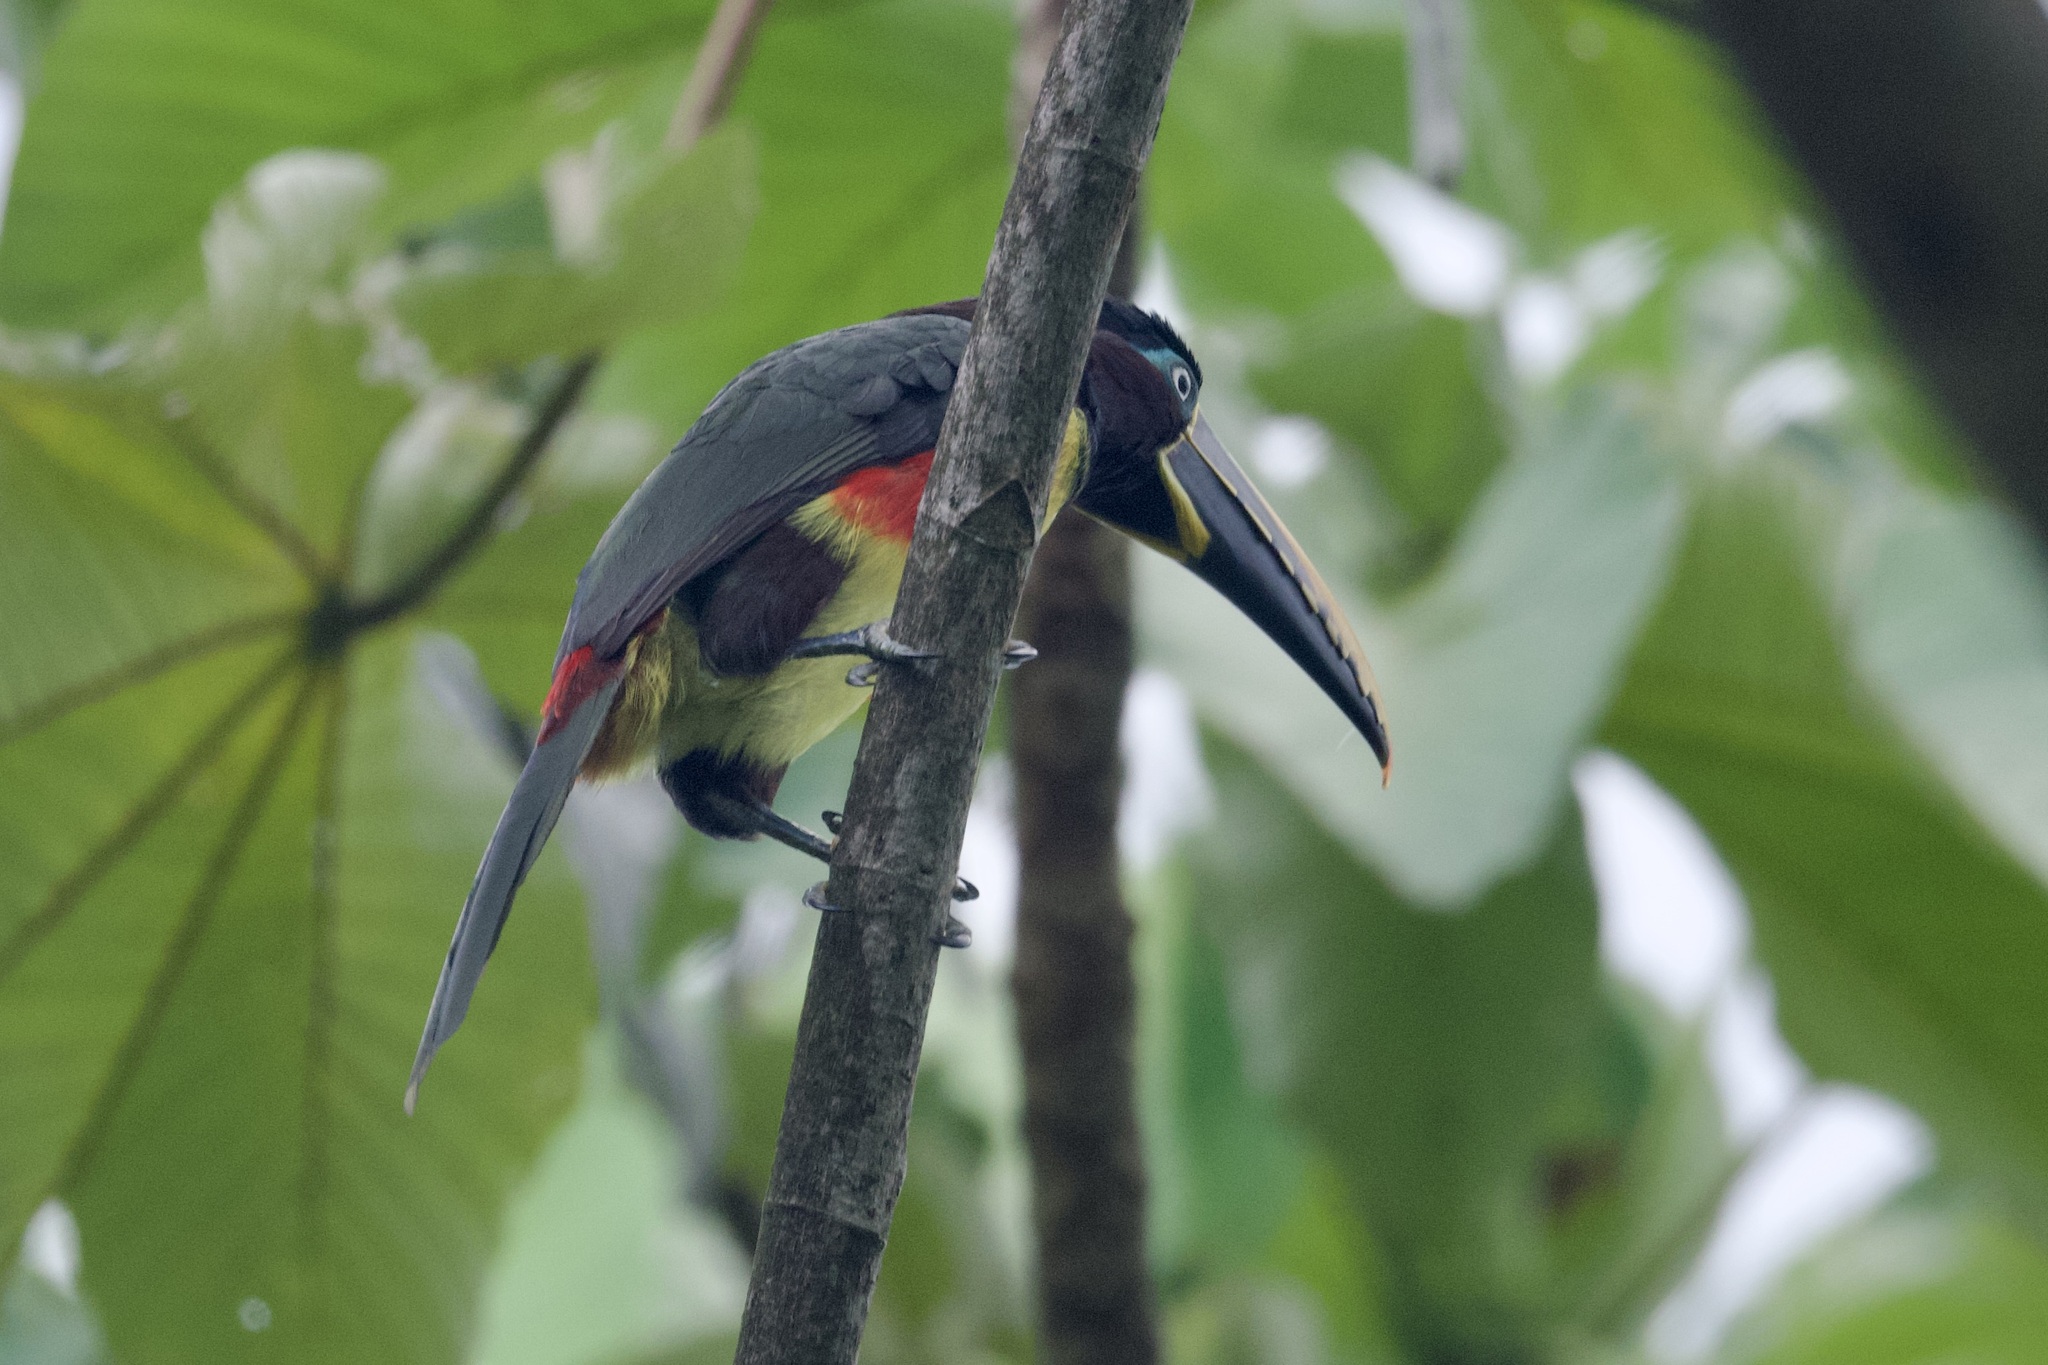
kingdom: Animalia
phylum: Chordata
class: Aves
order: Piciformes
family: Ramphastidae
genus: Pteroglossus
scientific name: Pteroglossus castanotis
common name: Chestnut-eared aracari
